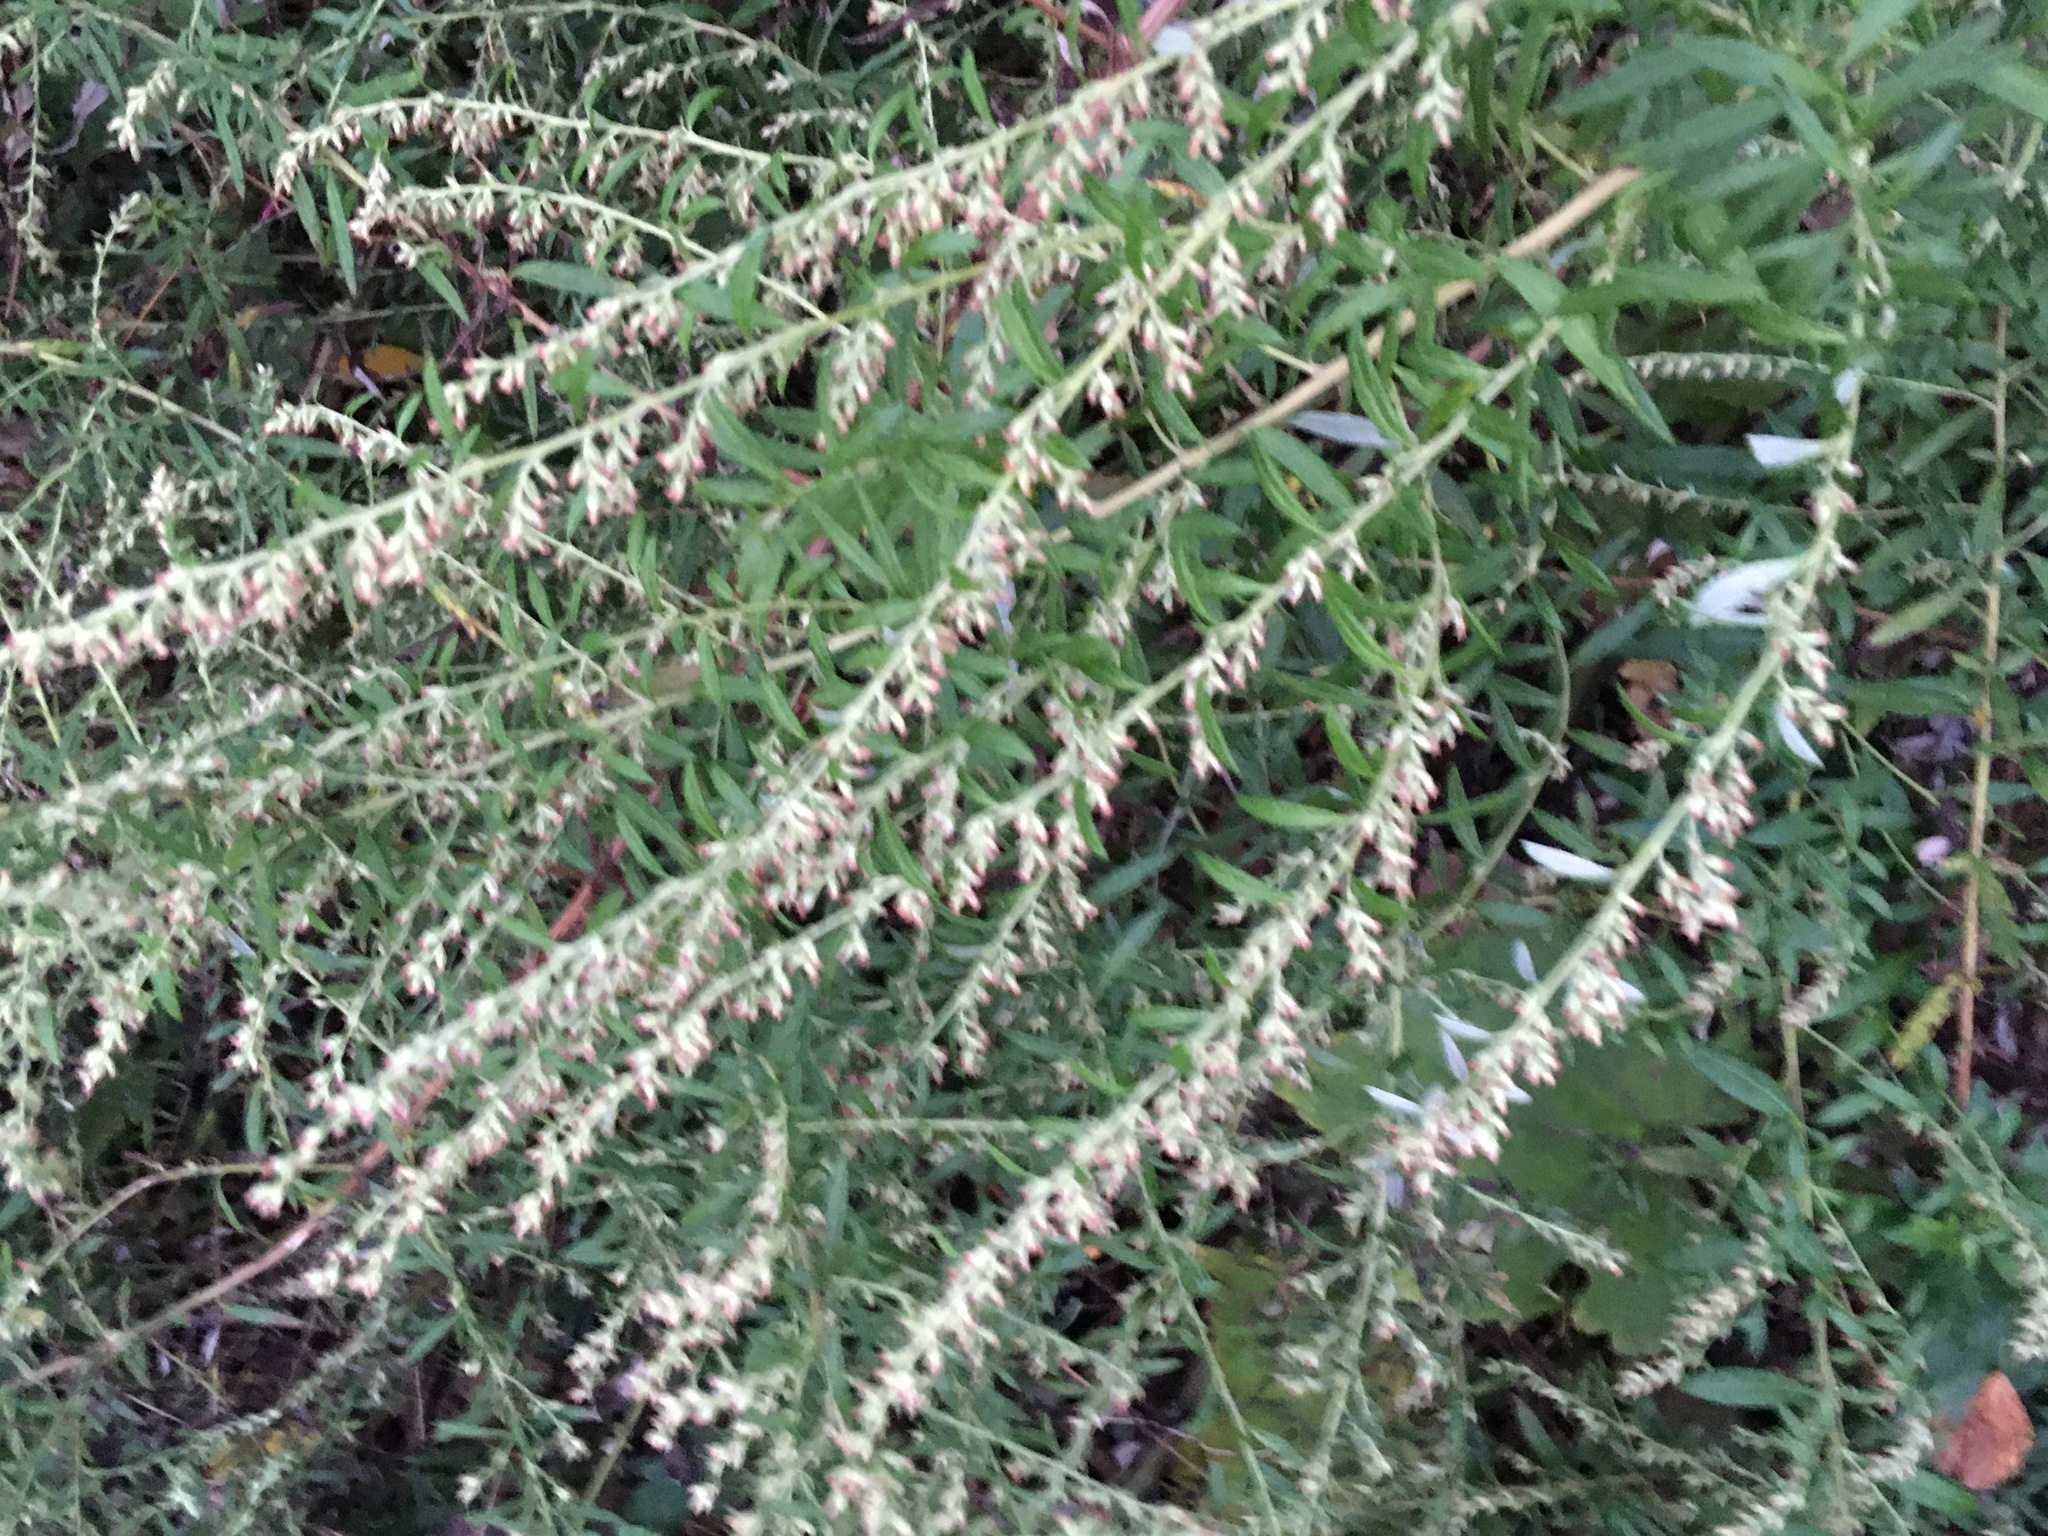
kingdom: Plantae
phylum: Tracheophyta
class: Magnoliopsida
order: Asterales
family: Asteraceae
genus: Artemisia
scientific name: Artemisia vulgaris
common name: Mugwort
